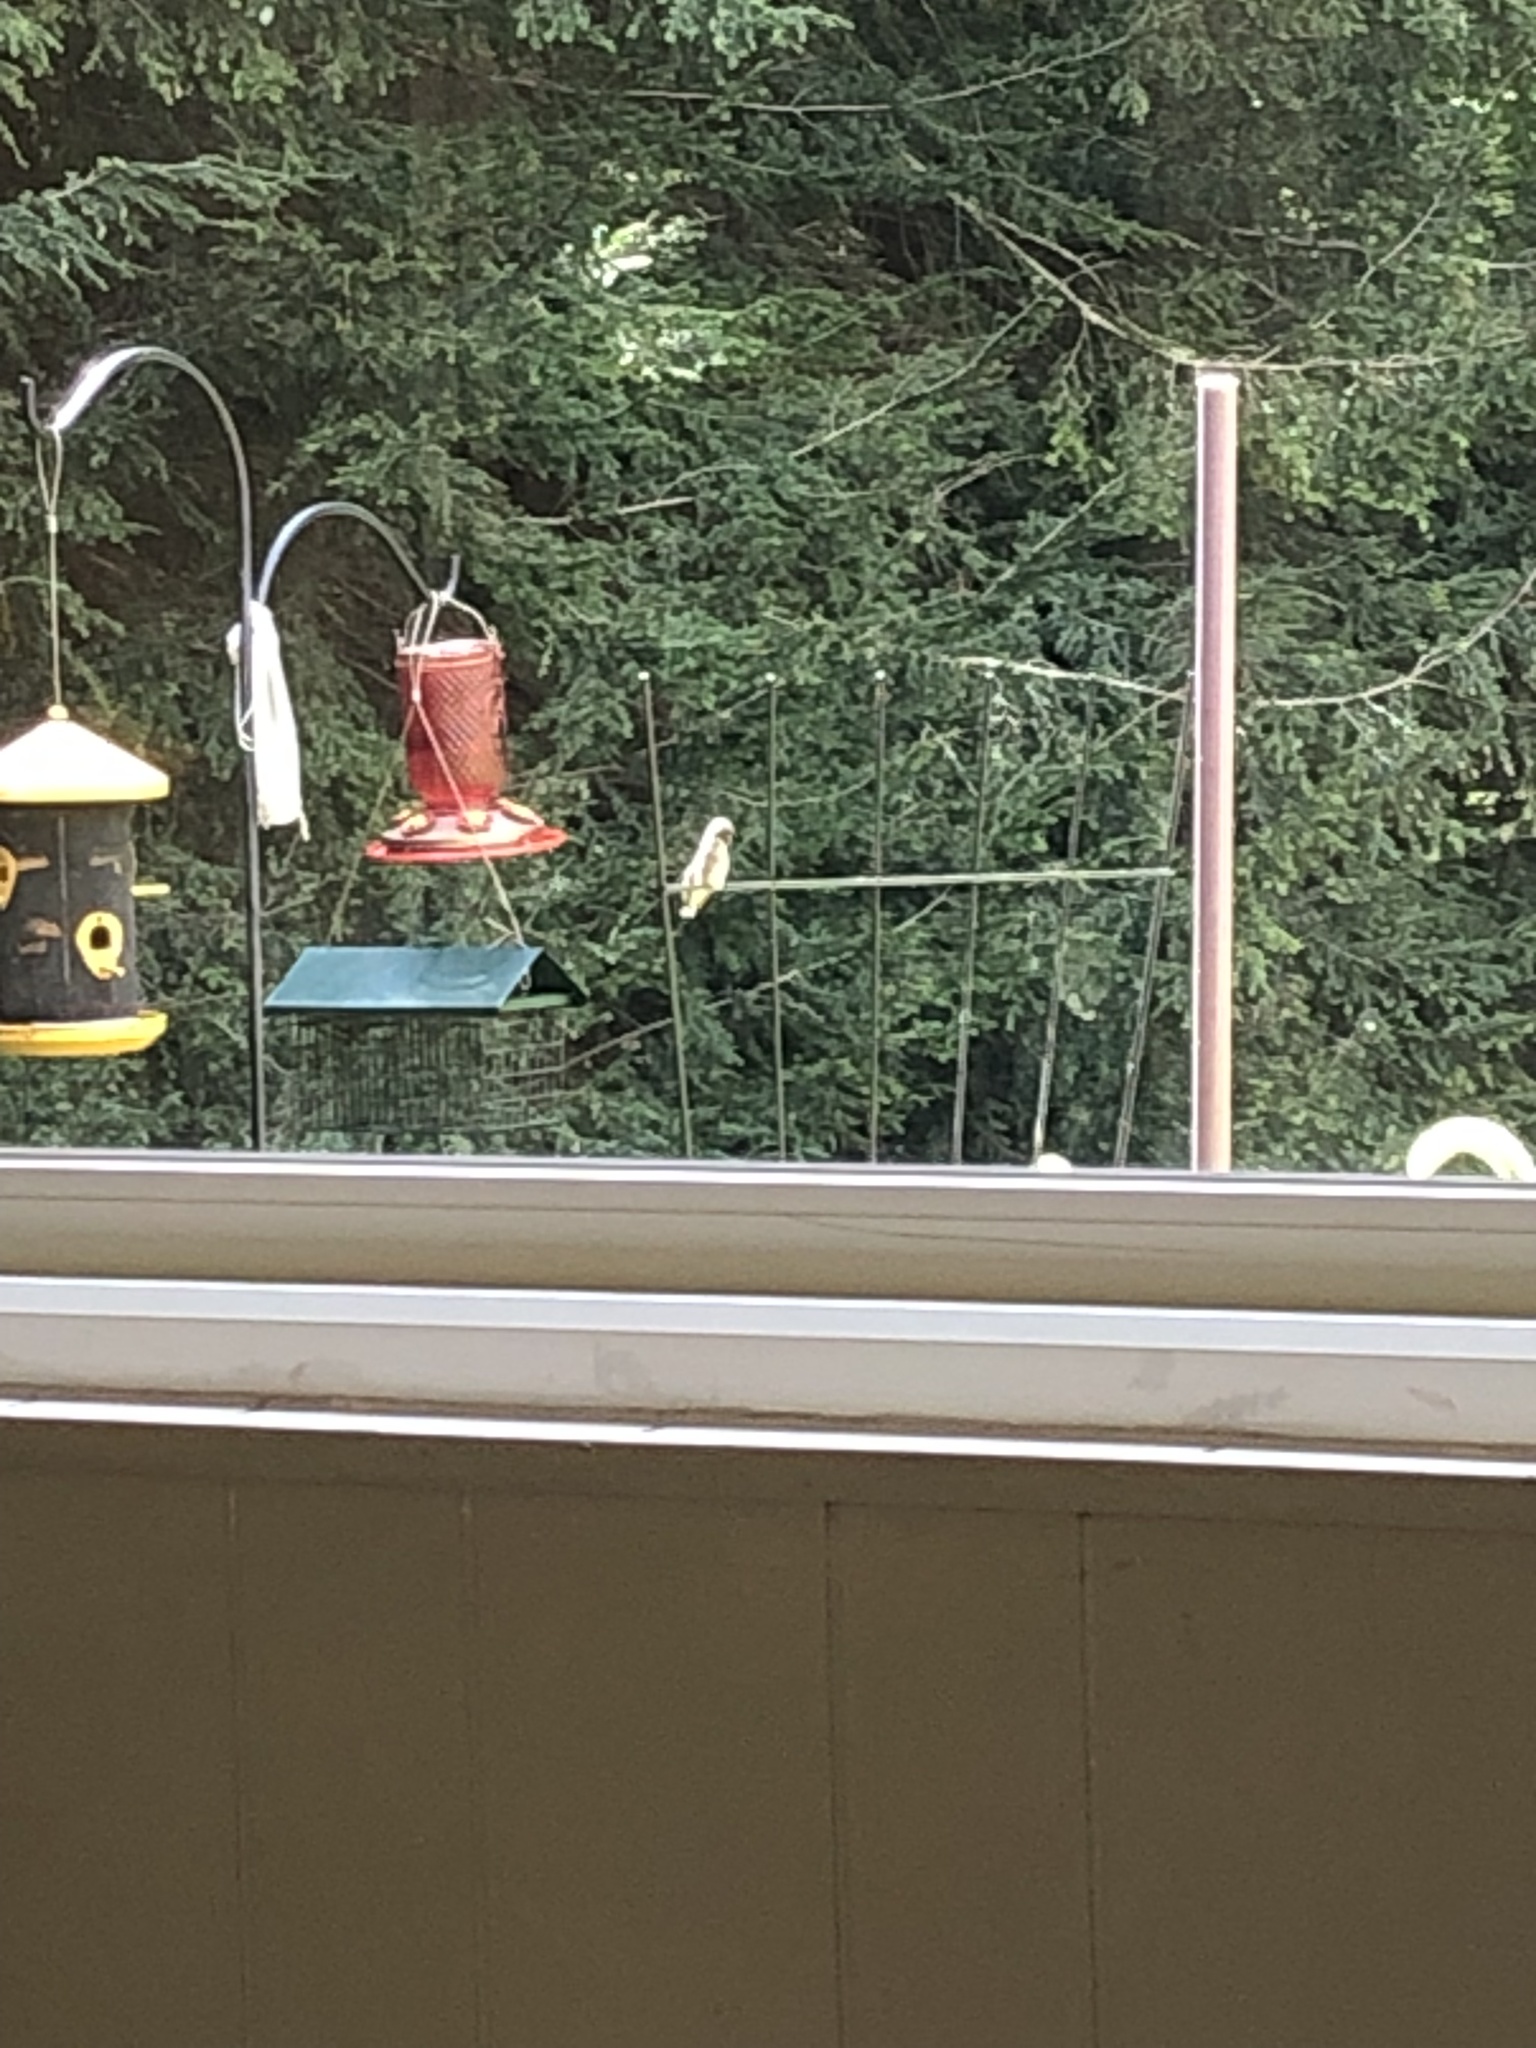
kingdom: Animalia
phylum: Chordata
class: Aves
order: Apodiformes
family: Trochilidae
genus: Archilochus
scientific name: Archilochus colubris
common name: Ruby-throated hummingbird
